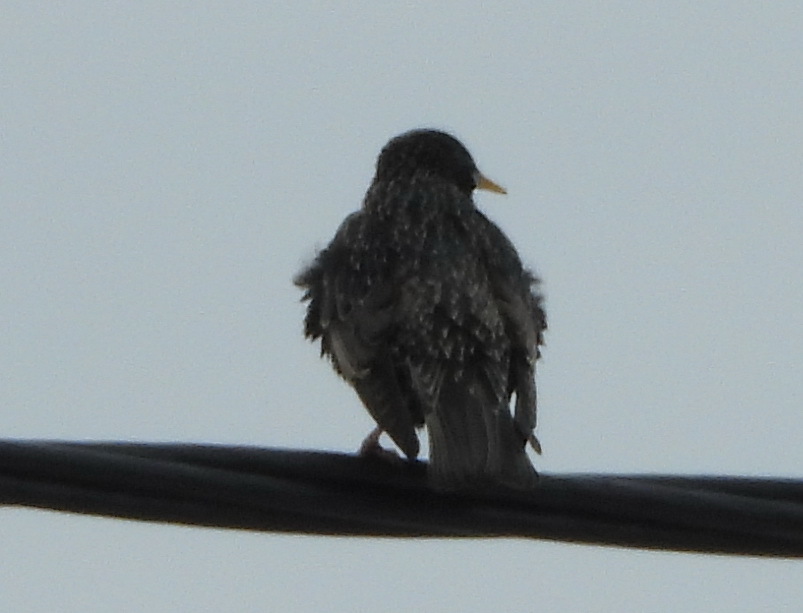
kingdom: Animalia
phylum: Chordata
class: Aves
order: Passeriformes
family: Sturnidae
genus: Sturnus
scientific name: Sturnus vulgaris
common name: Common starling
